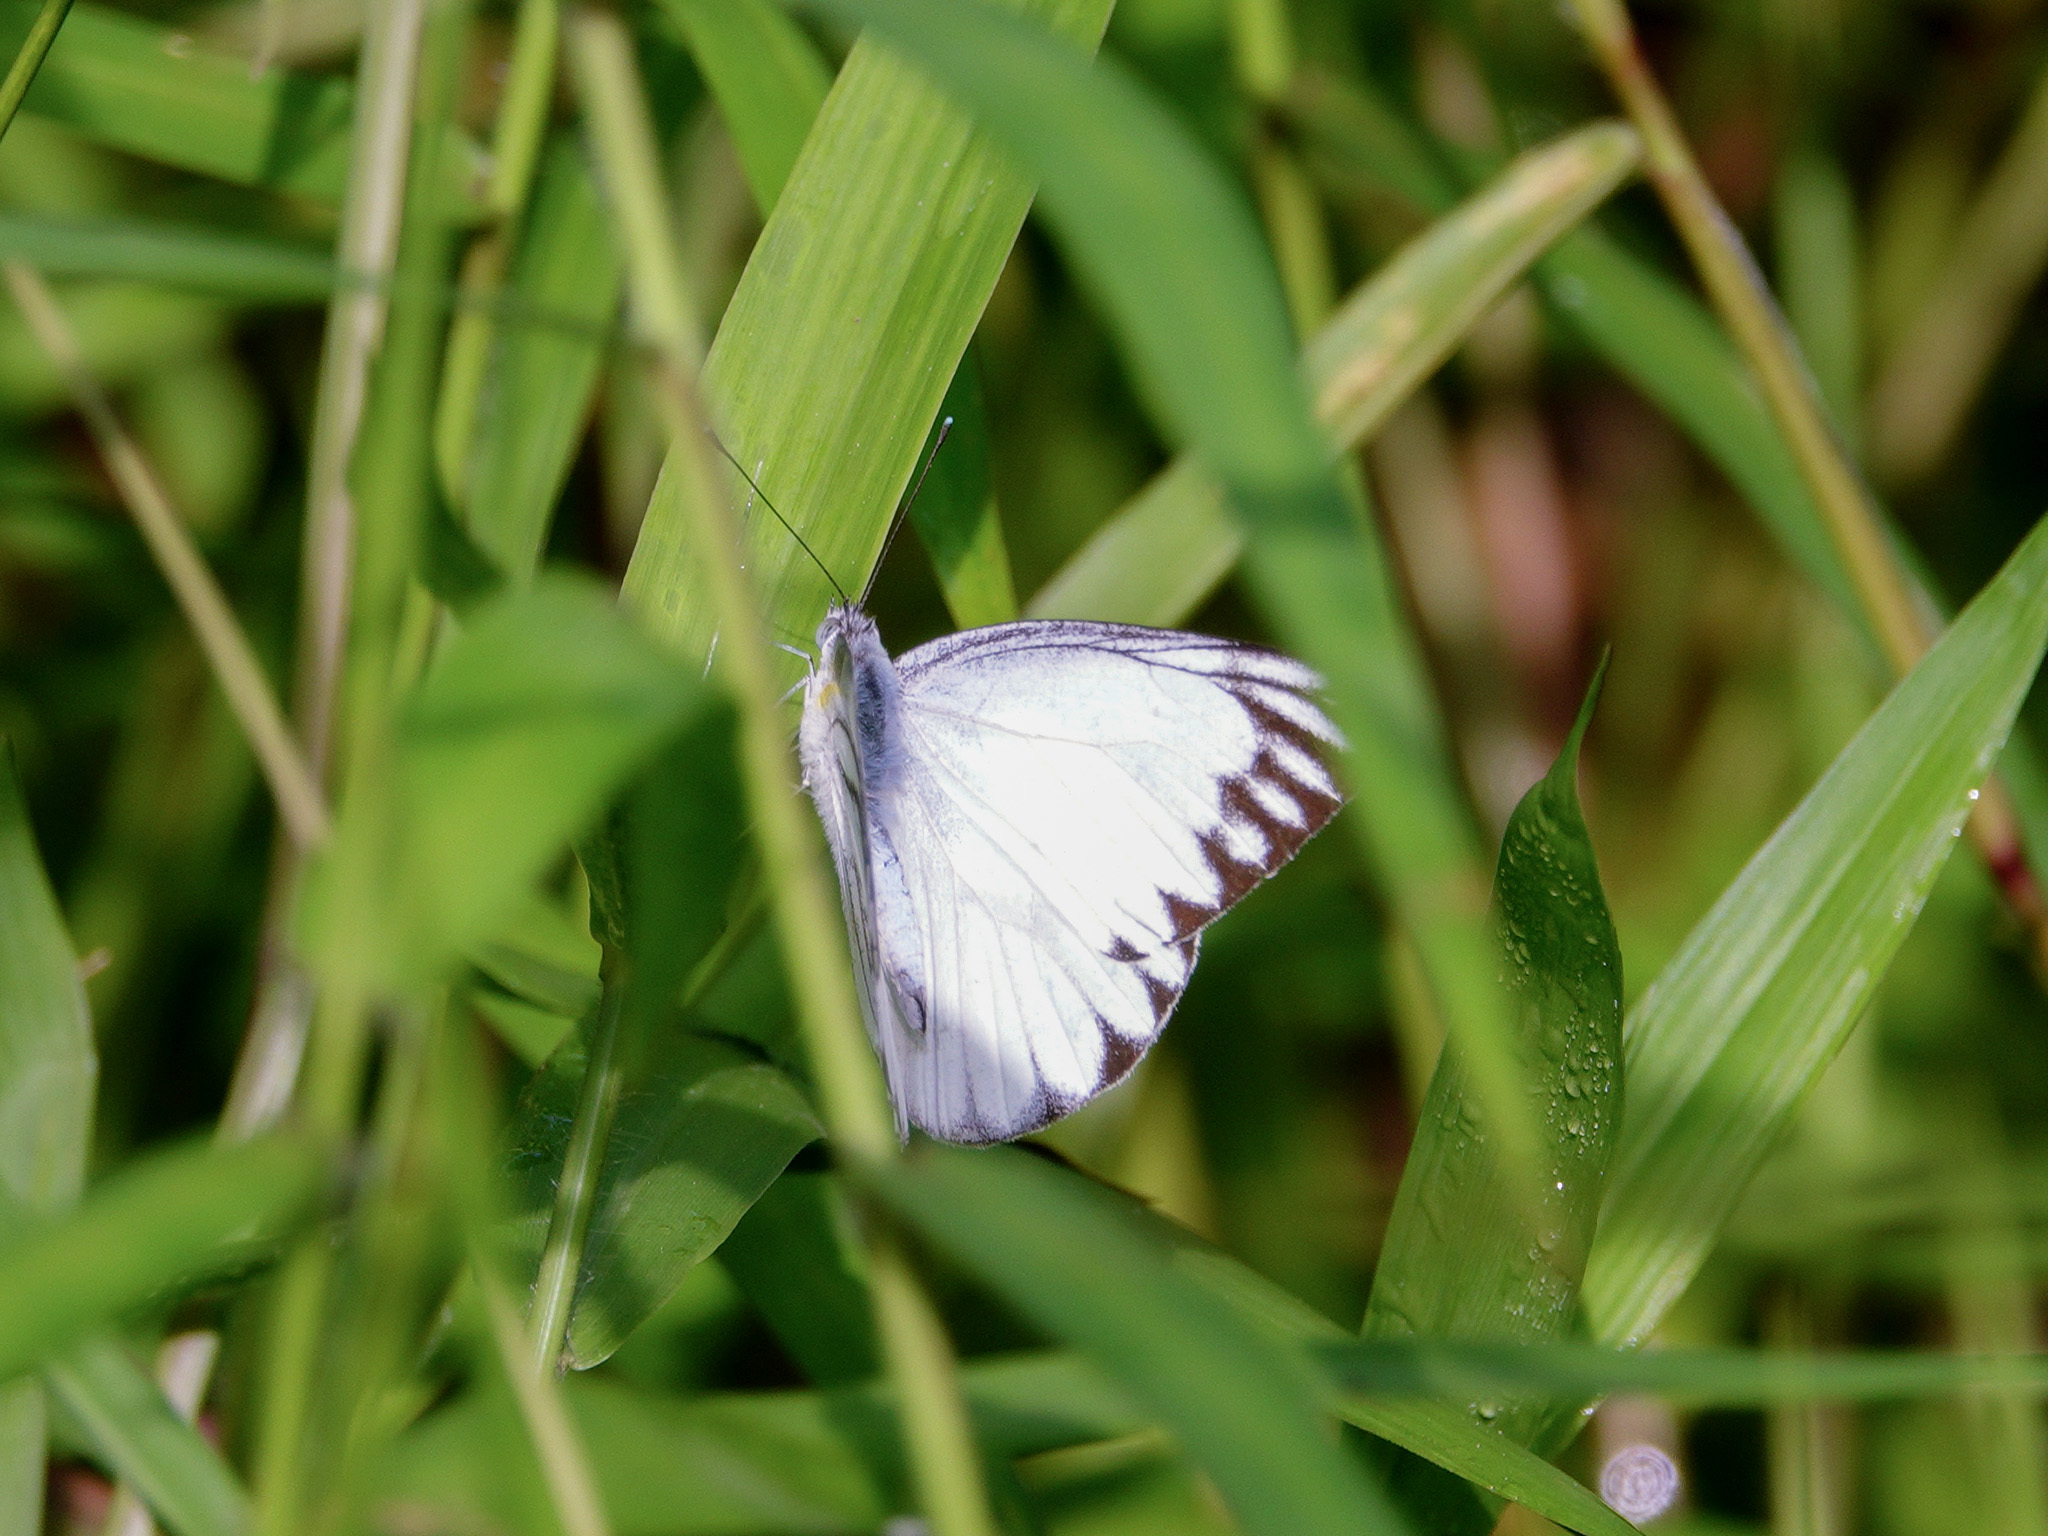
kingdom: Animalia
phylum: Arthropoda
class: Insecta
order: Lepidoptera
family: Pieridae
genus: Appias
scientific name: Appias libythea
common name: Striped albatross
